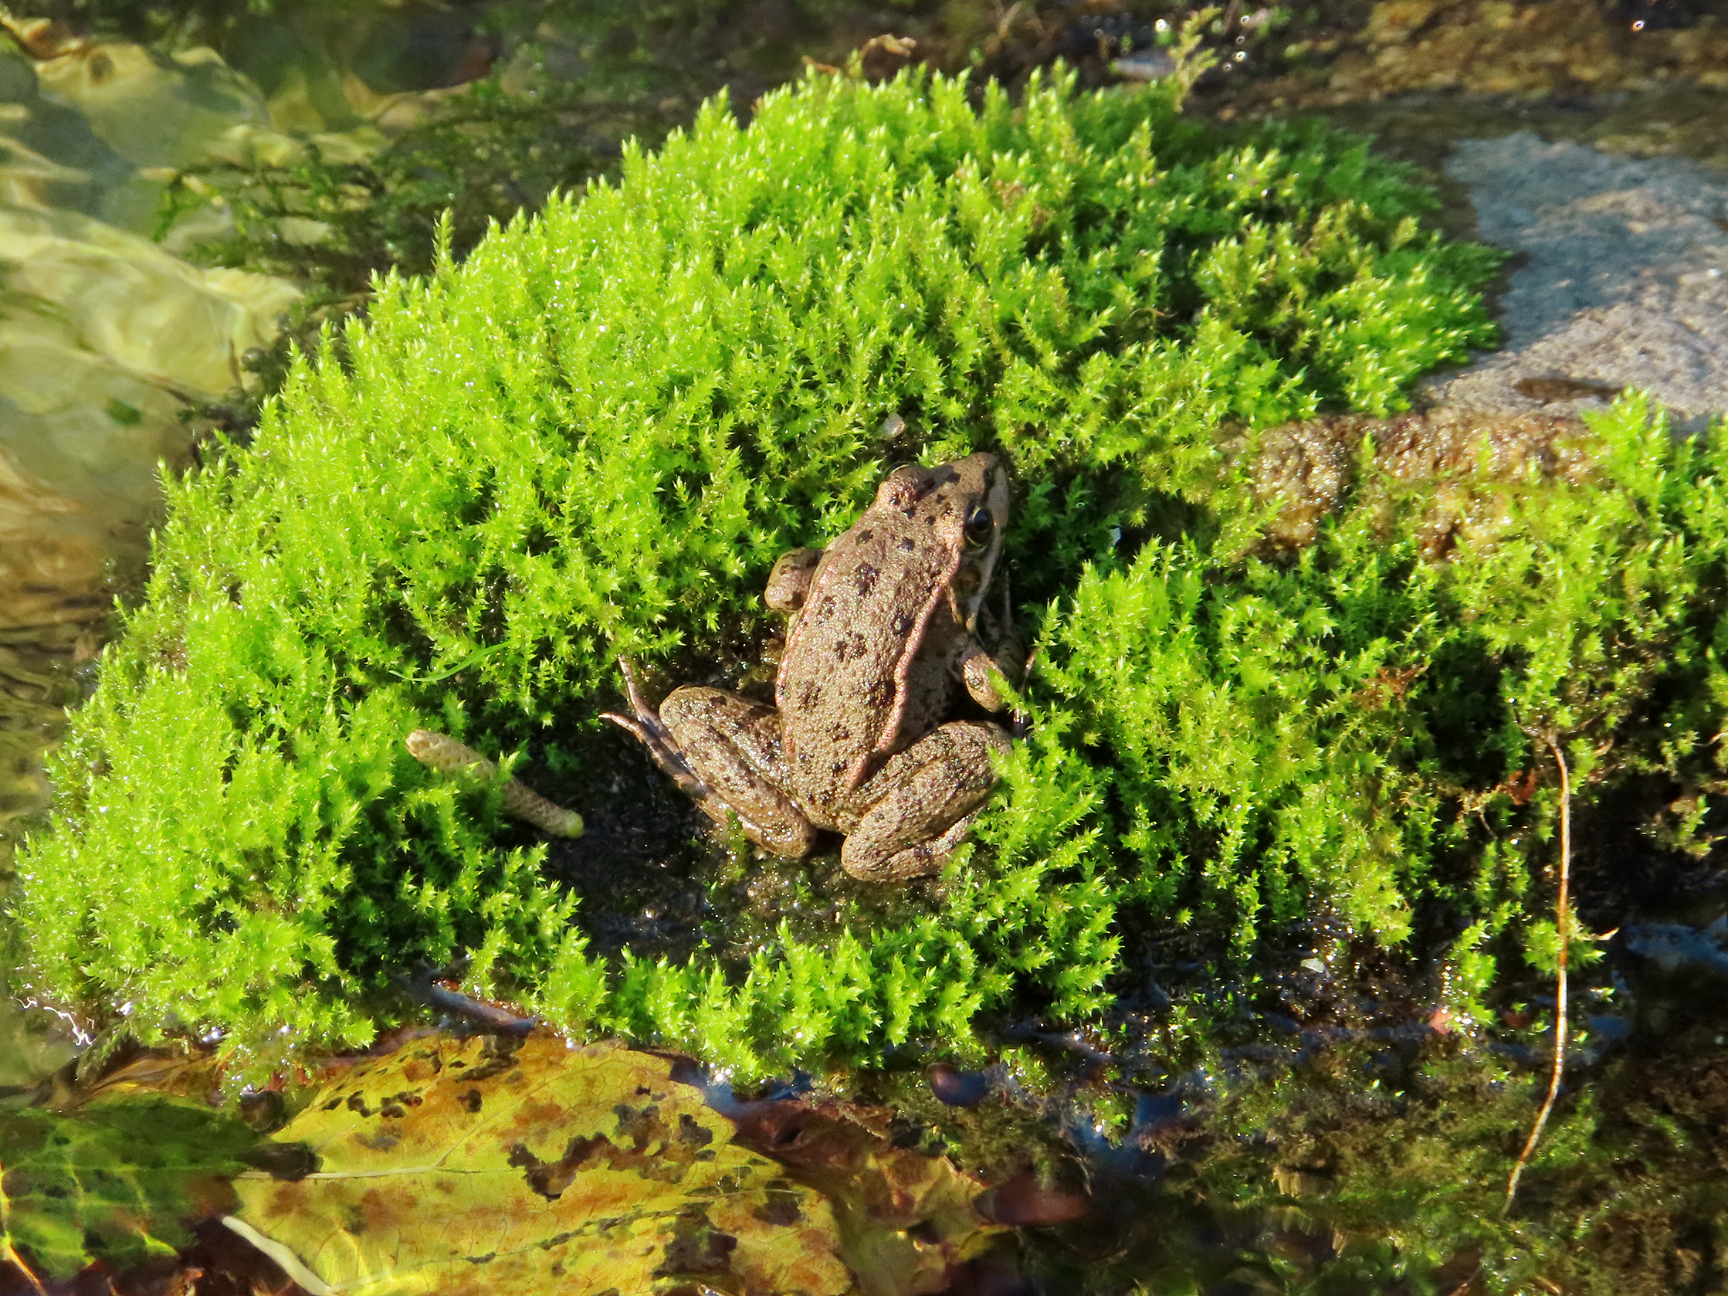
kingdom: Animalia
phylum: Chordata
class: Amphibia
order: Anura
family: Ranidae
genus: Pelophylax
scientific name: Pelophylax ridibundus
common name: Marsh frog
